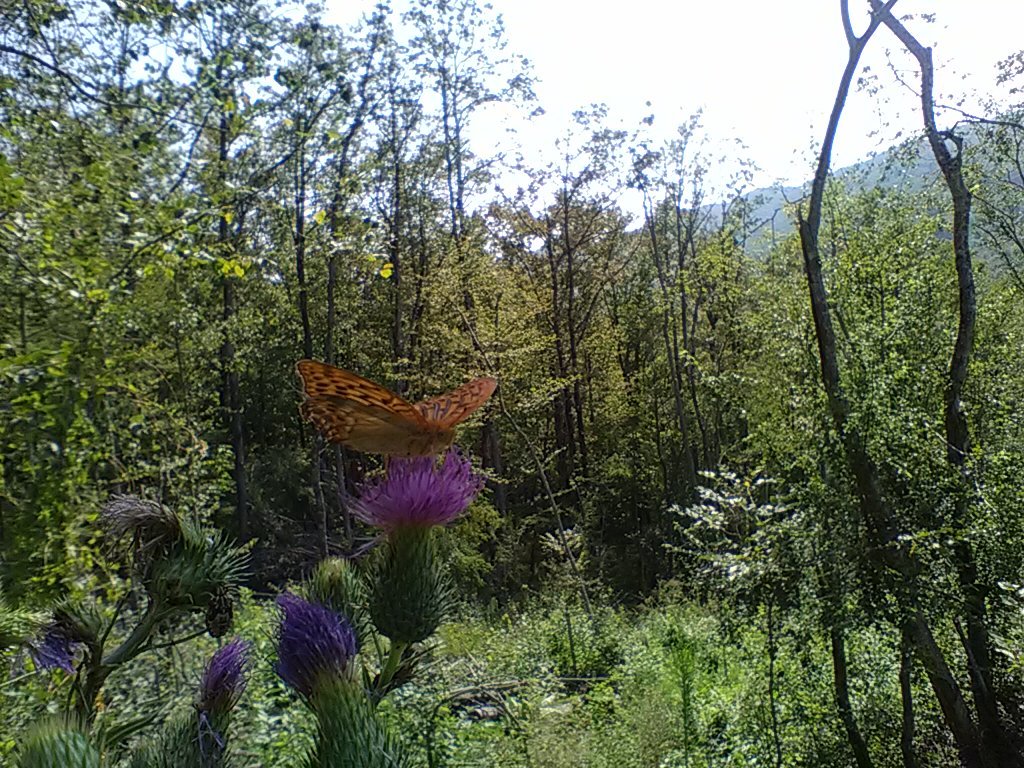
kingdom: Animalia
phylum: Arthropoda
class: Insecta
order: Lepidoptera
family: Nymphalidae
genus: Argynnis
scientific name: Argynnis paphia
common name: Silver-washed fritillary
